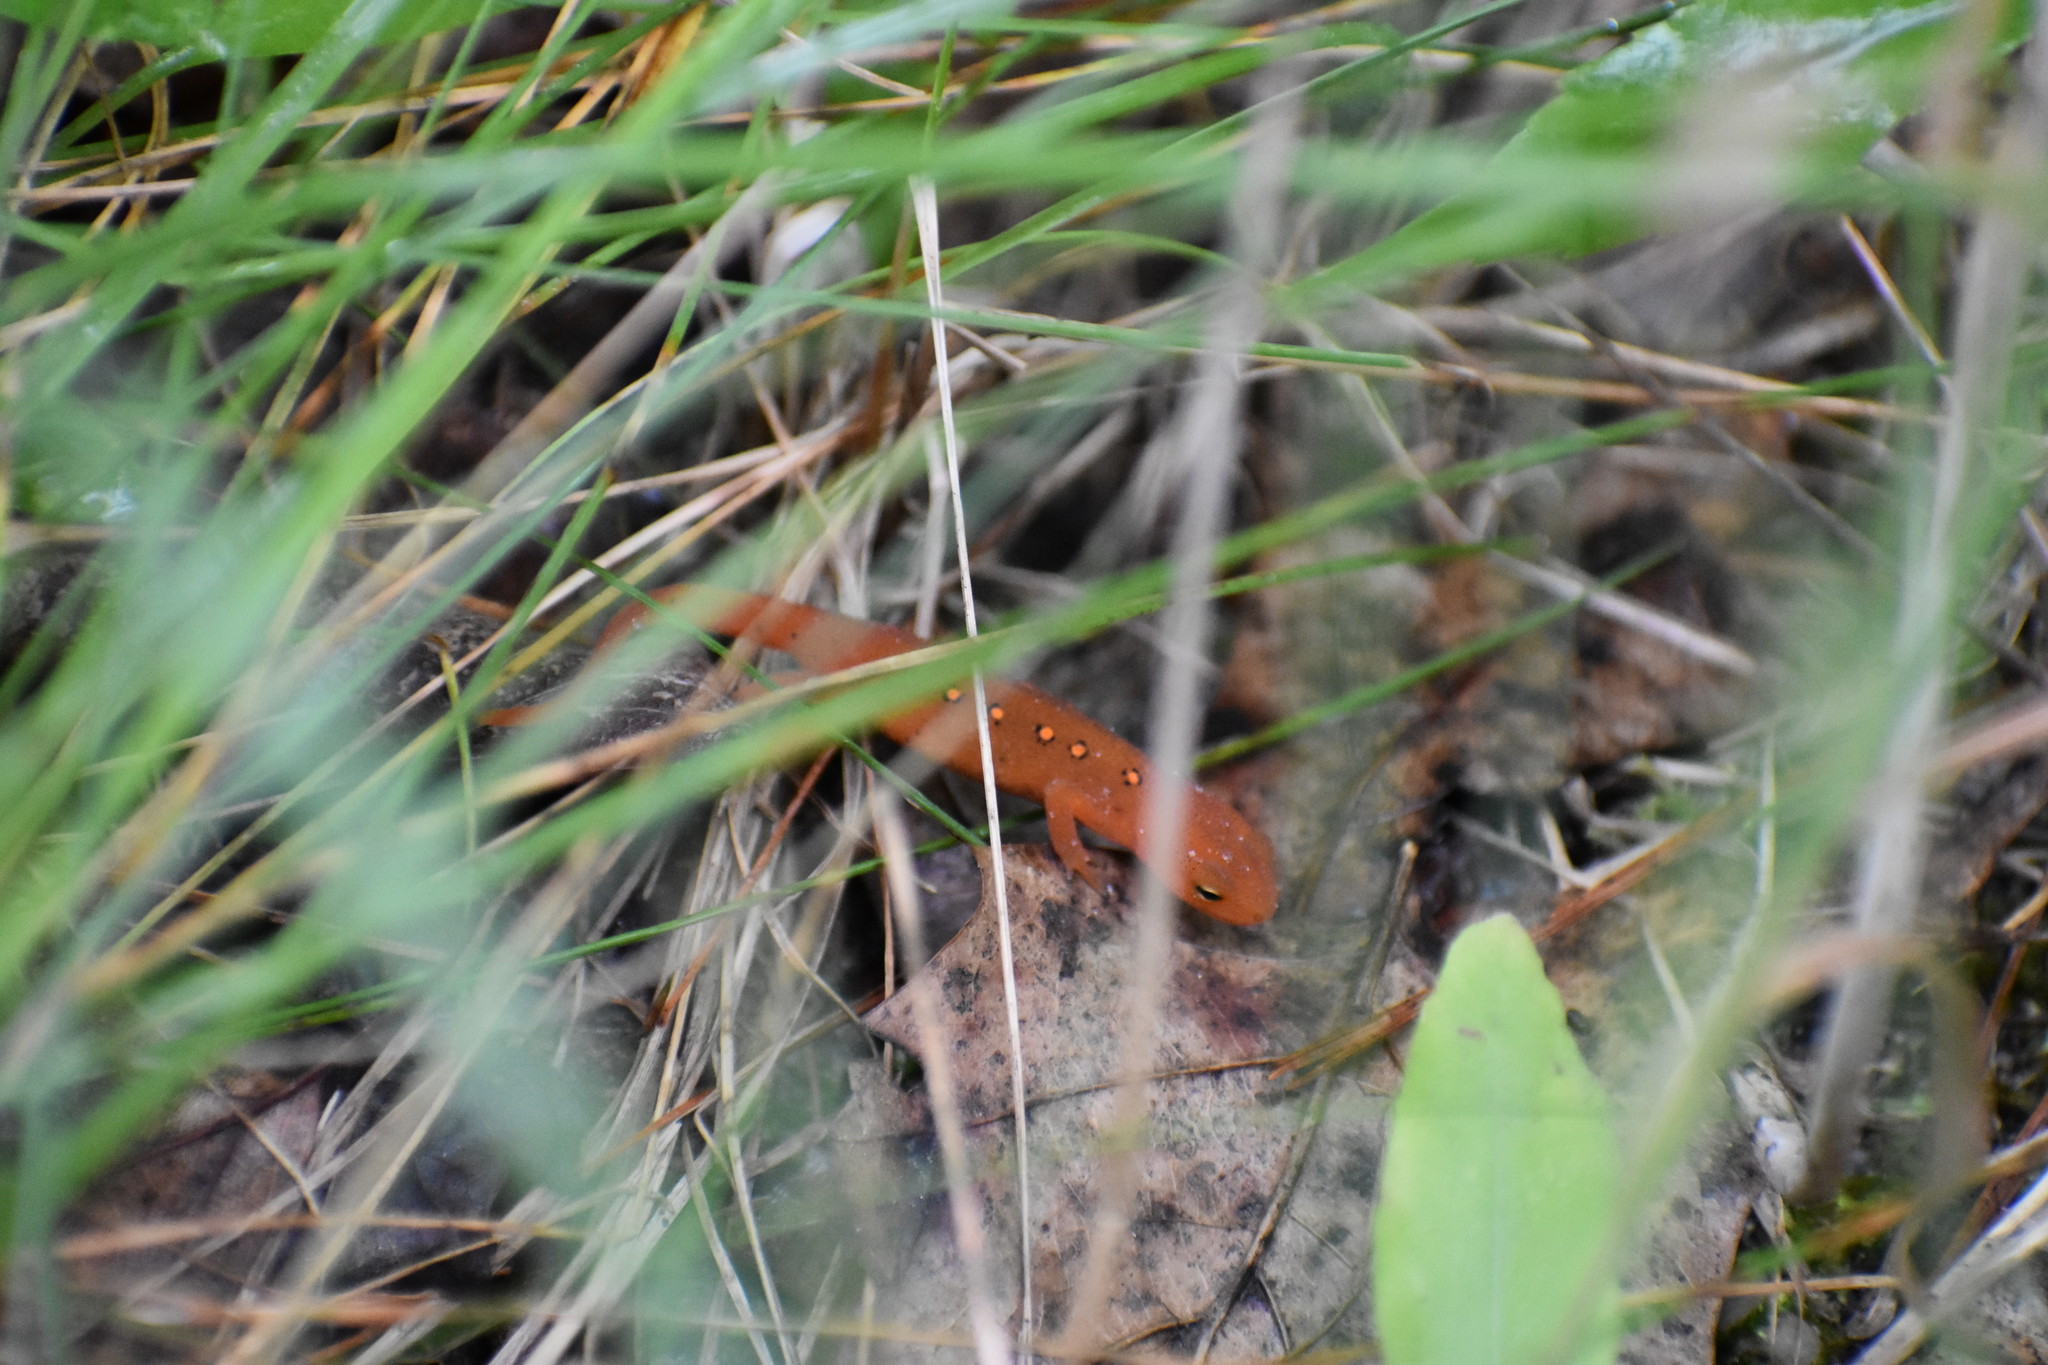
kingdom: Animalia
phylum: Chordata
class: Amphibia
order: Caudata
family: Salamandridae
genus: Notophthalmus
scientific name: Notophthalmus viridescens
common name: Eastern newt
